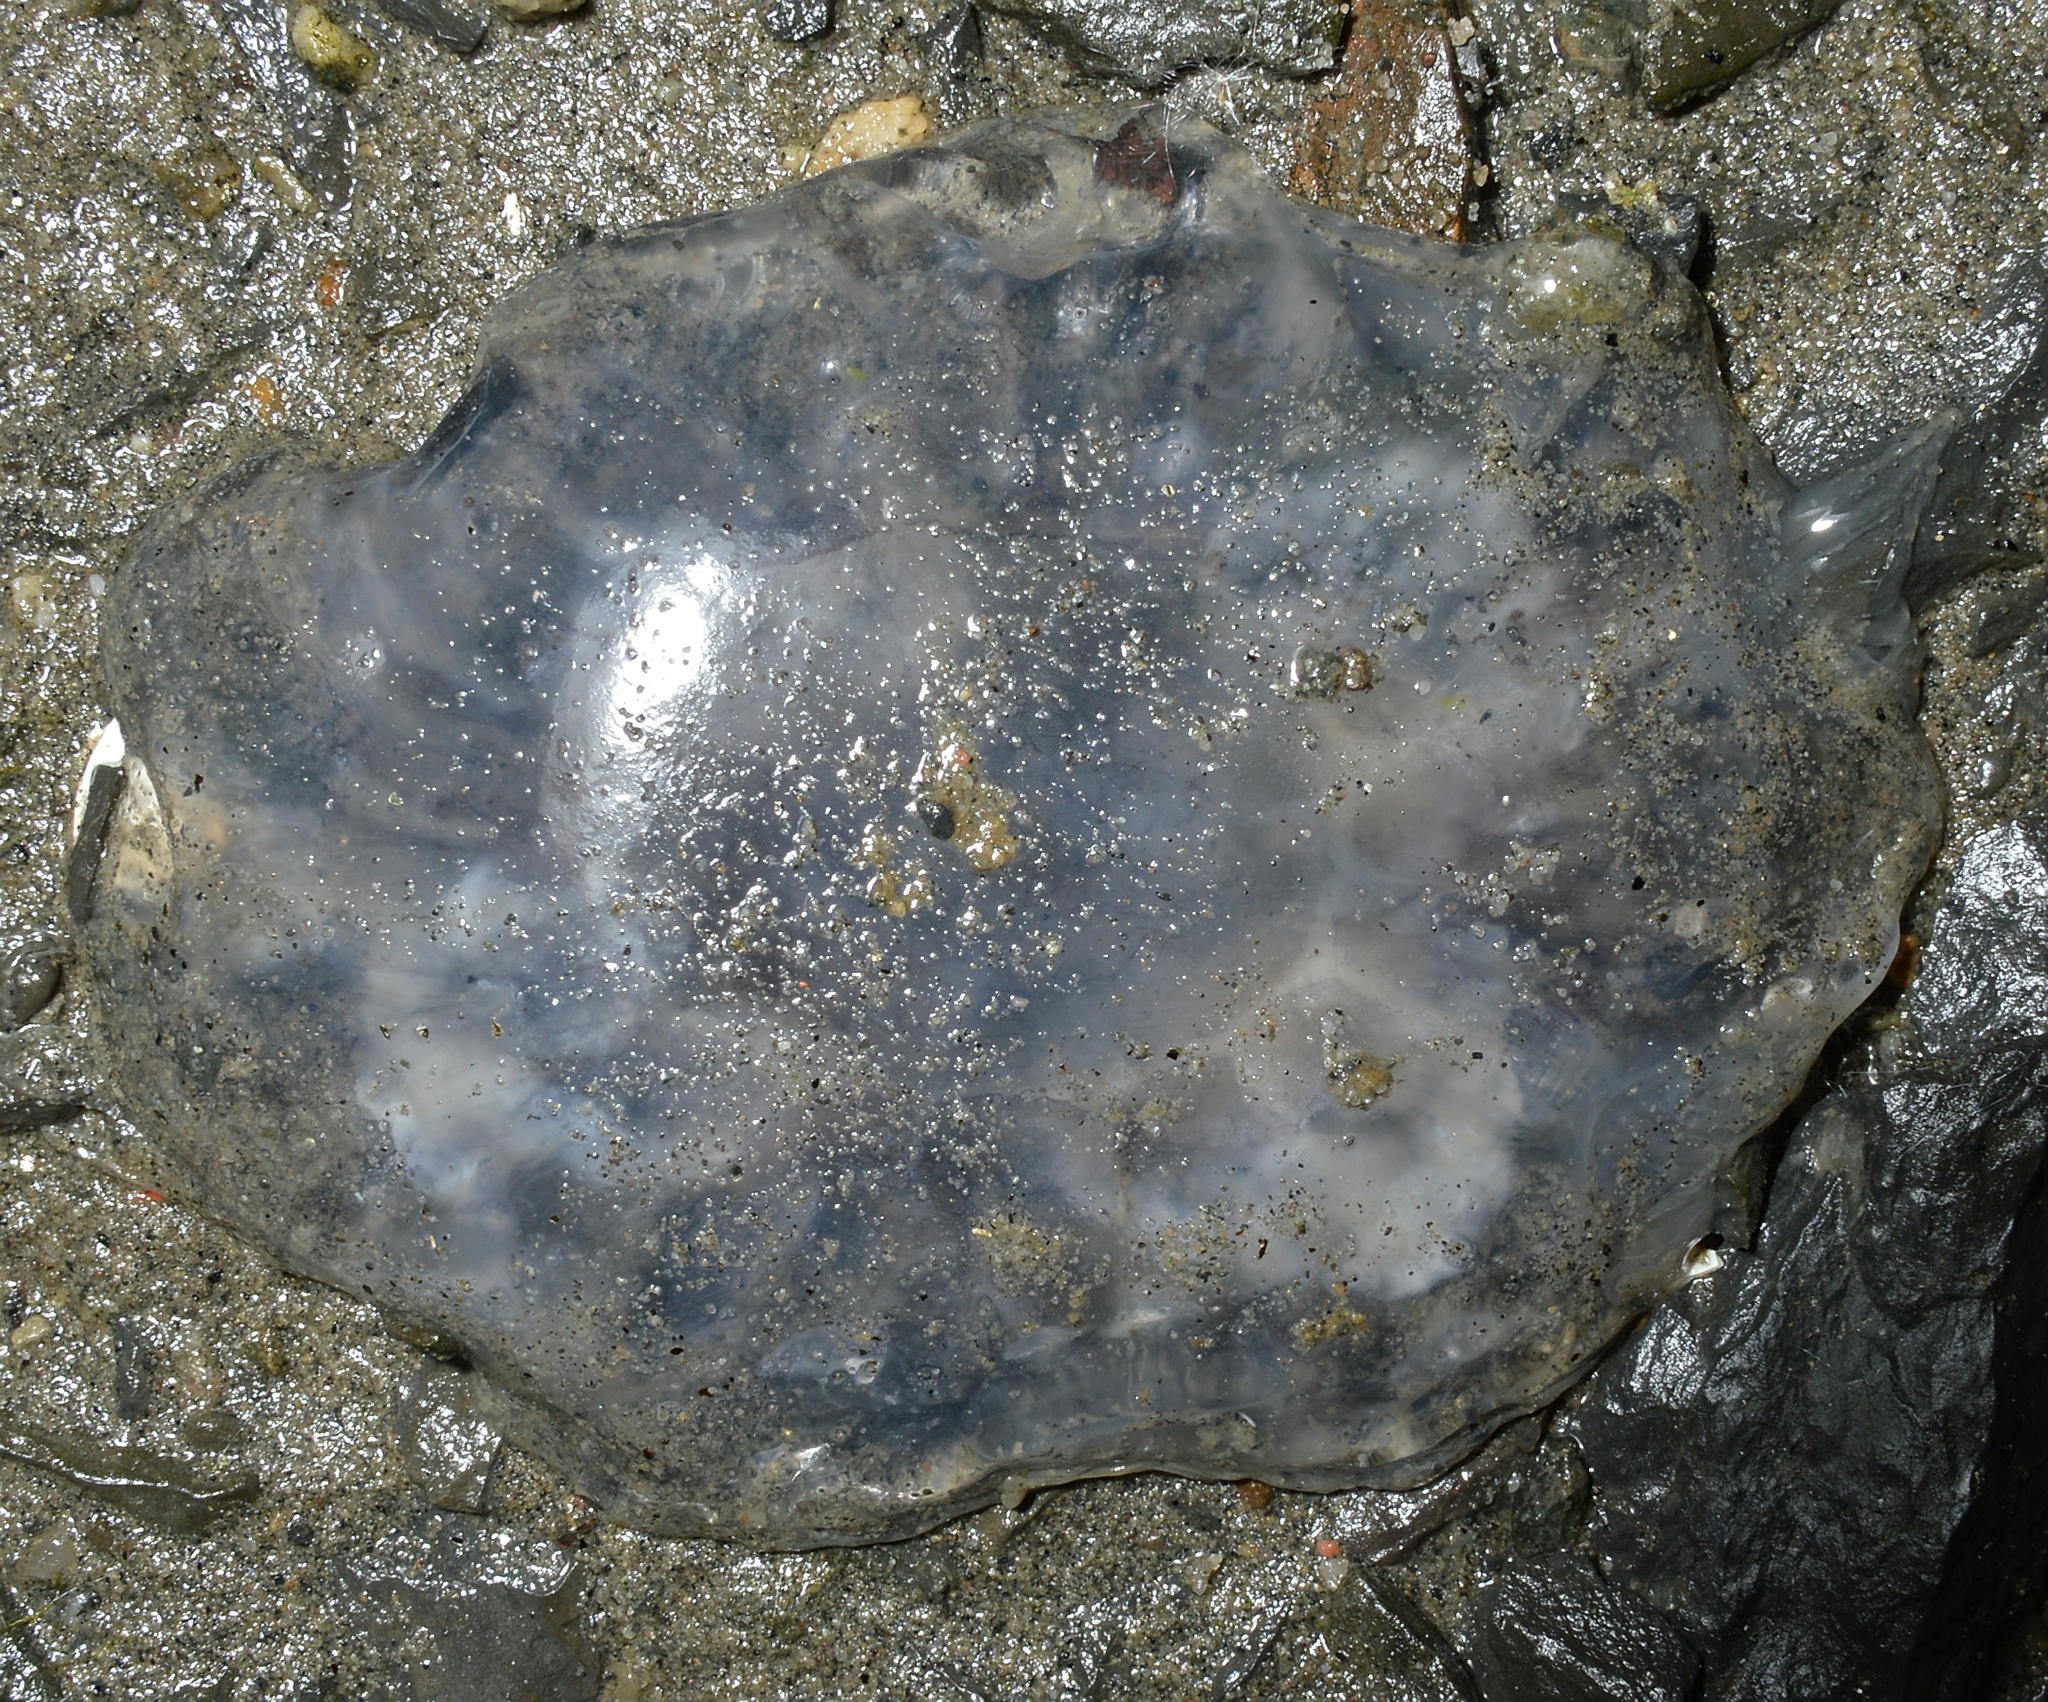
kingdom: Animalia
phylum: Cnidaria
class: Scyphozoa
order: Semaeostomeae
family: Cyaneidae
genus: Cyanea
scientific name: Cyanea lamarckii
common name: Blue jellyfish
